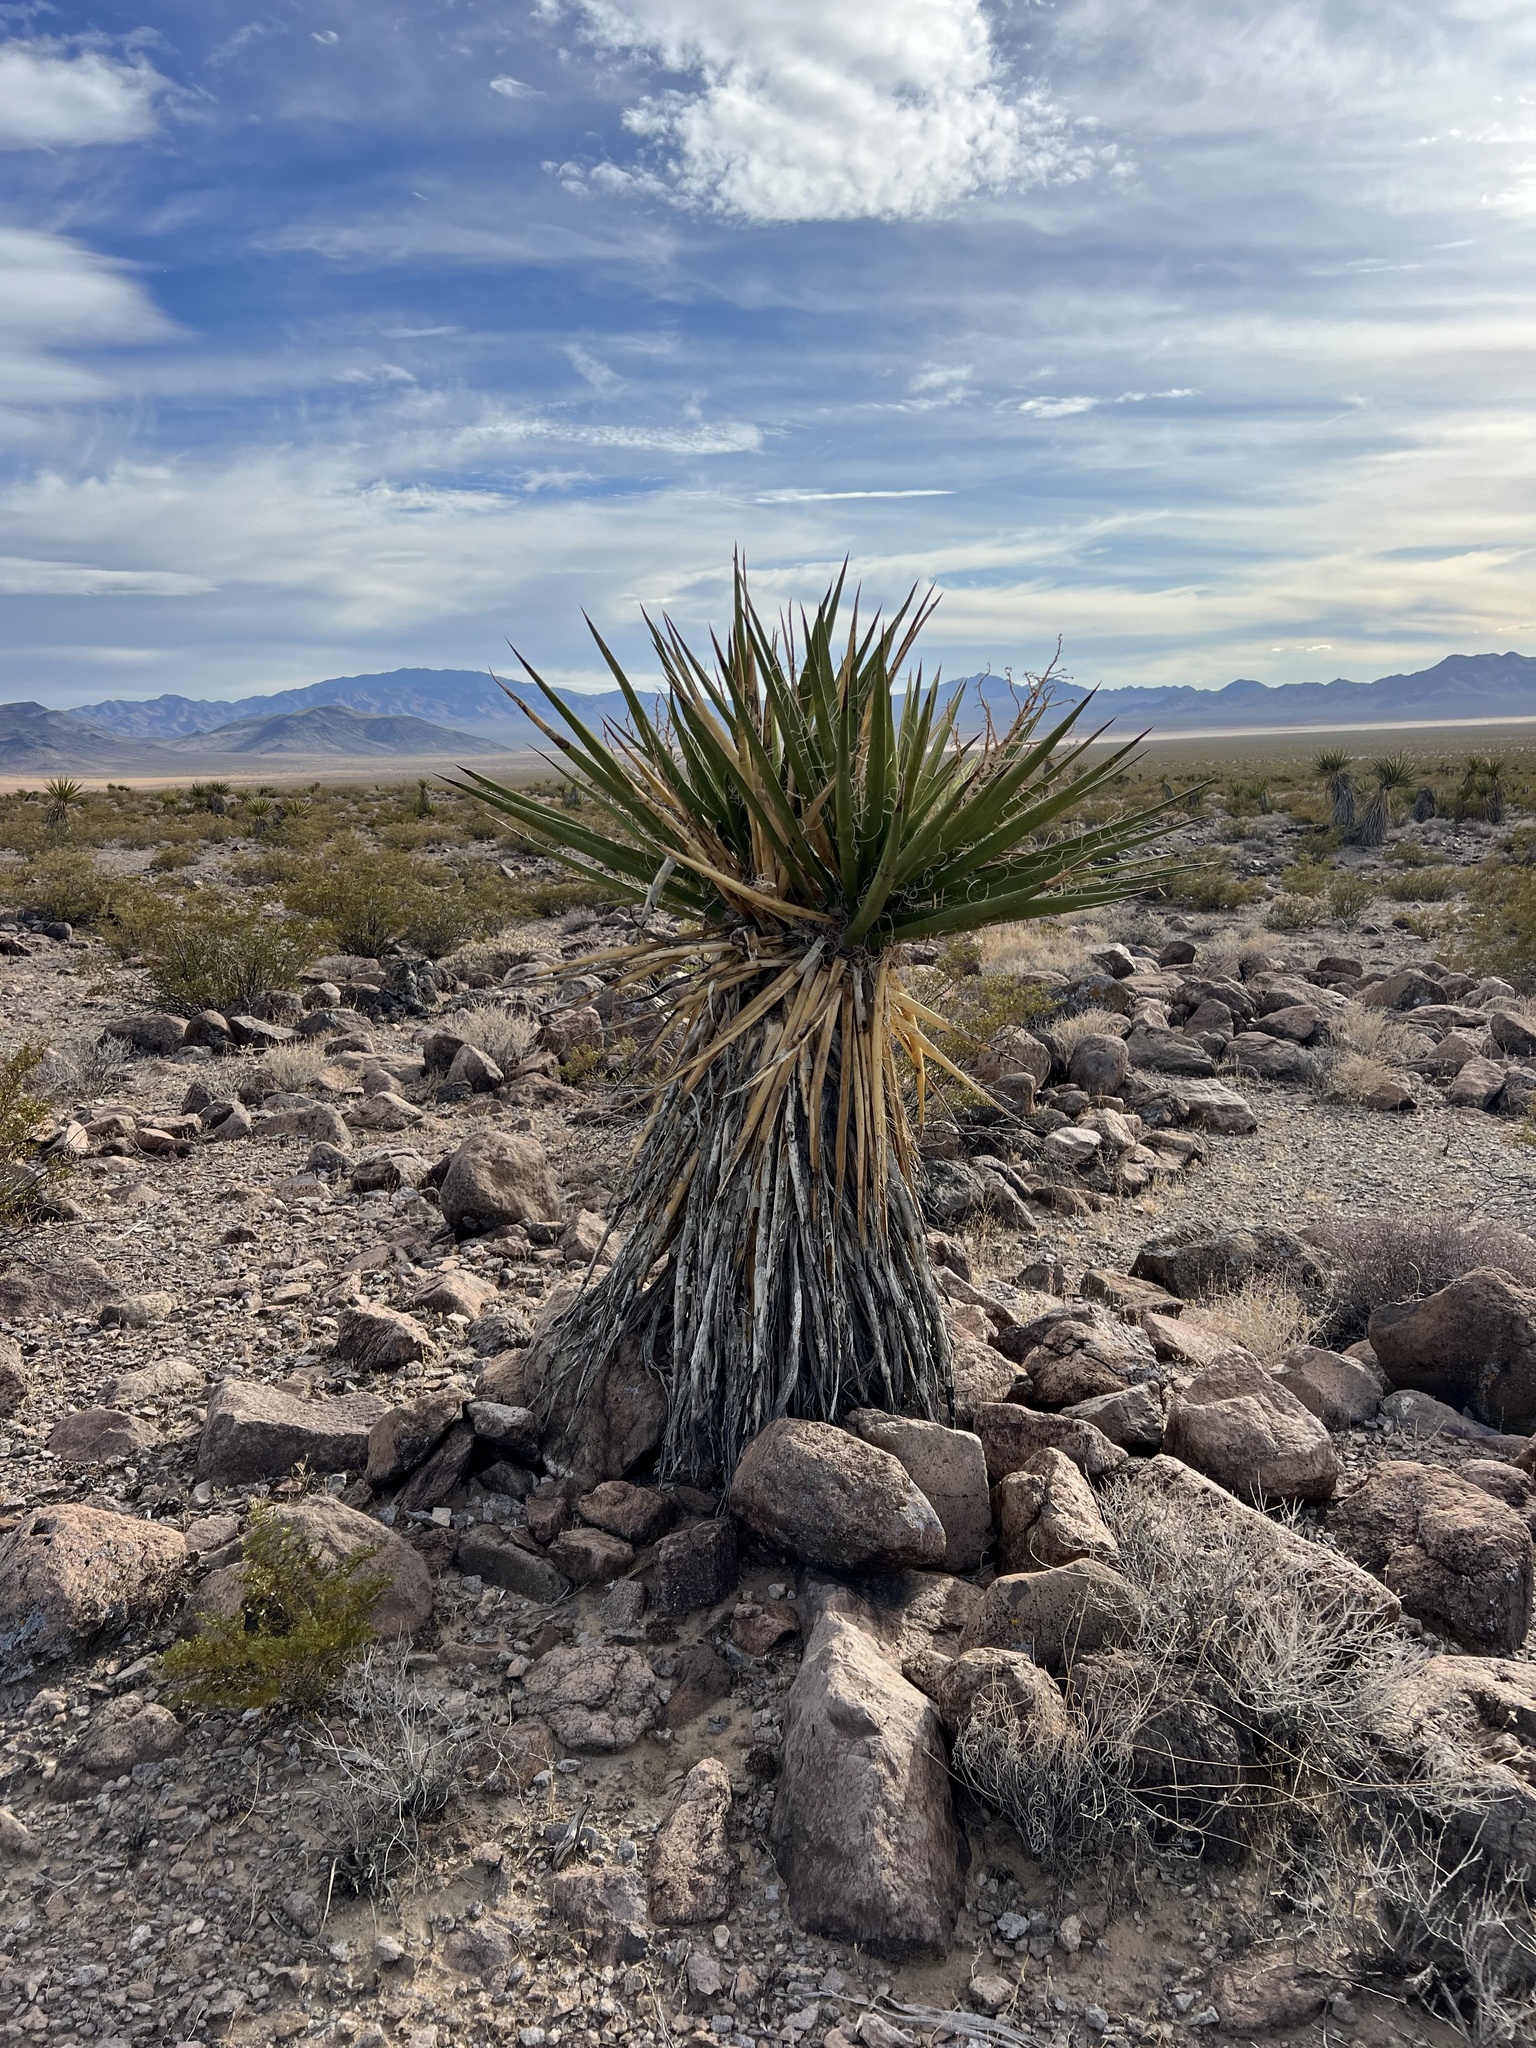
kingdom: Plantae
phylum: Tracheophyta
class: Liliopsida
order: Asparagales
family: Asparagaceae
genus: Yucca
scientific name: Yucca schidigera
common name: Mojave yucca
